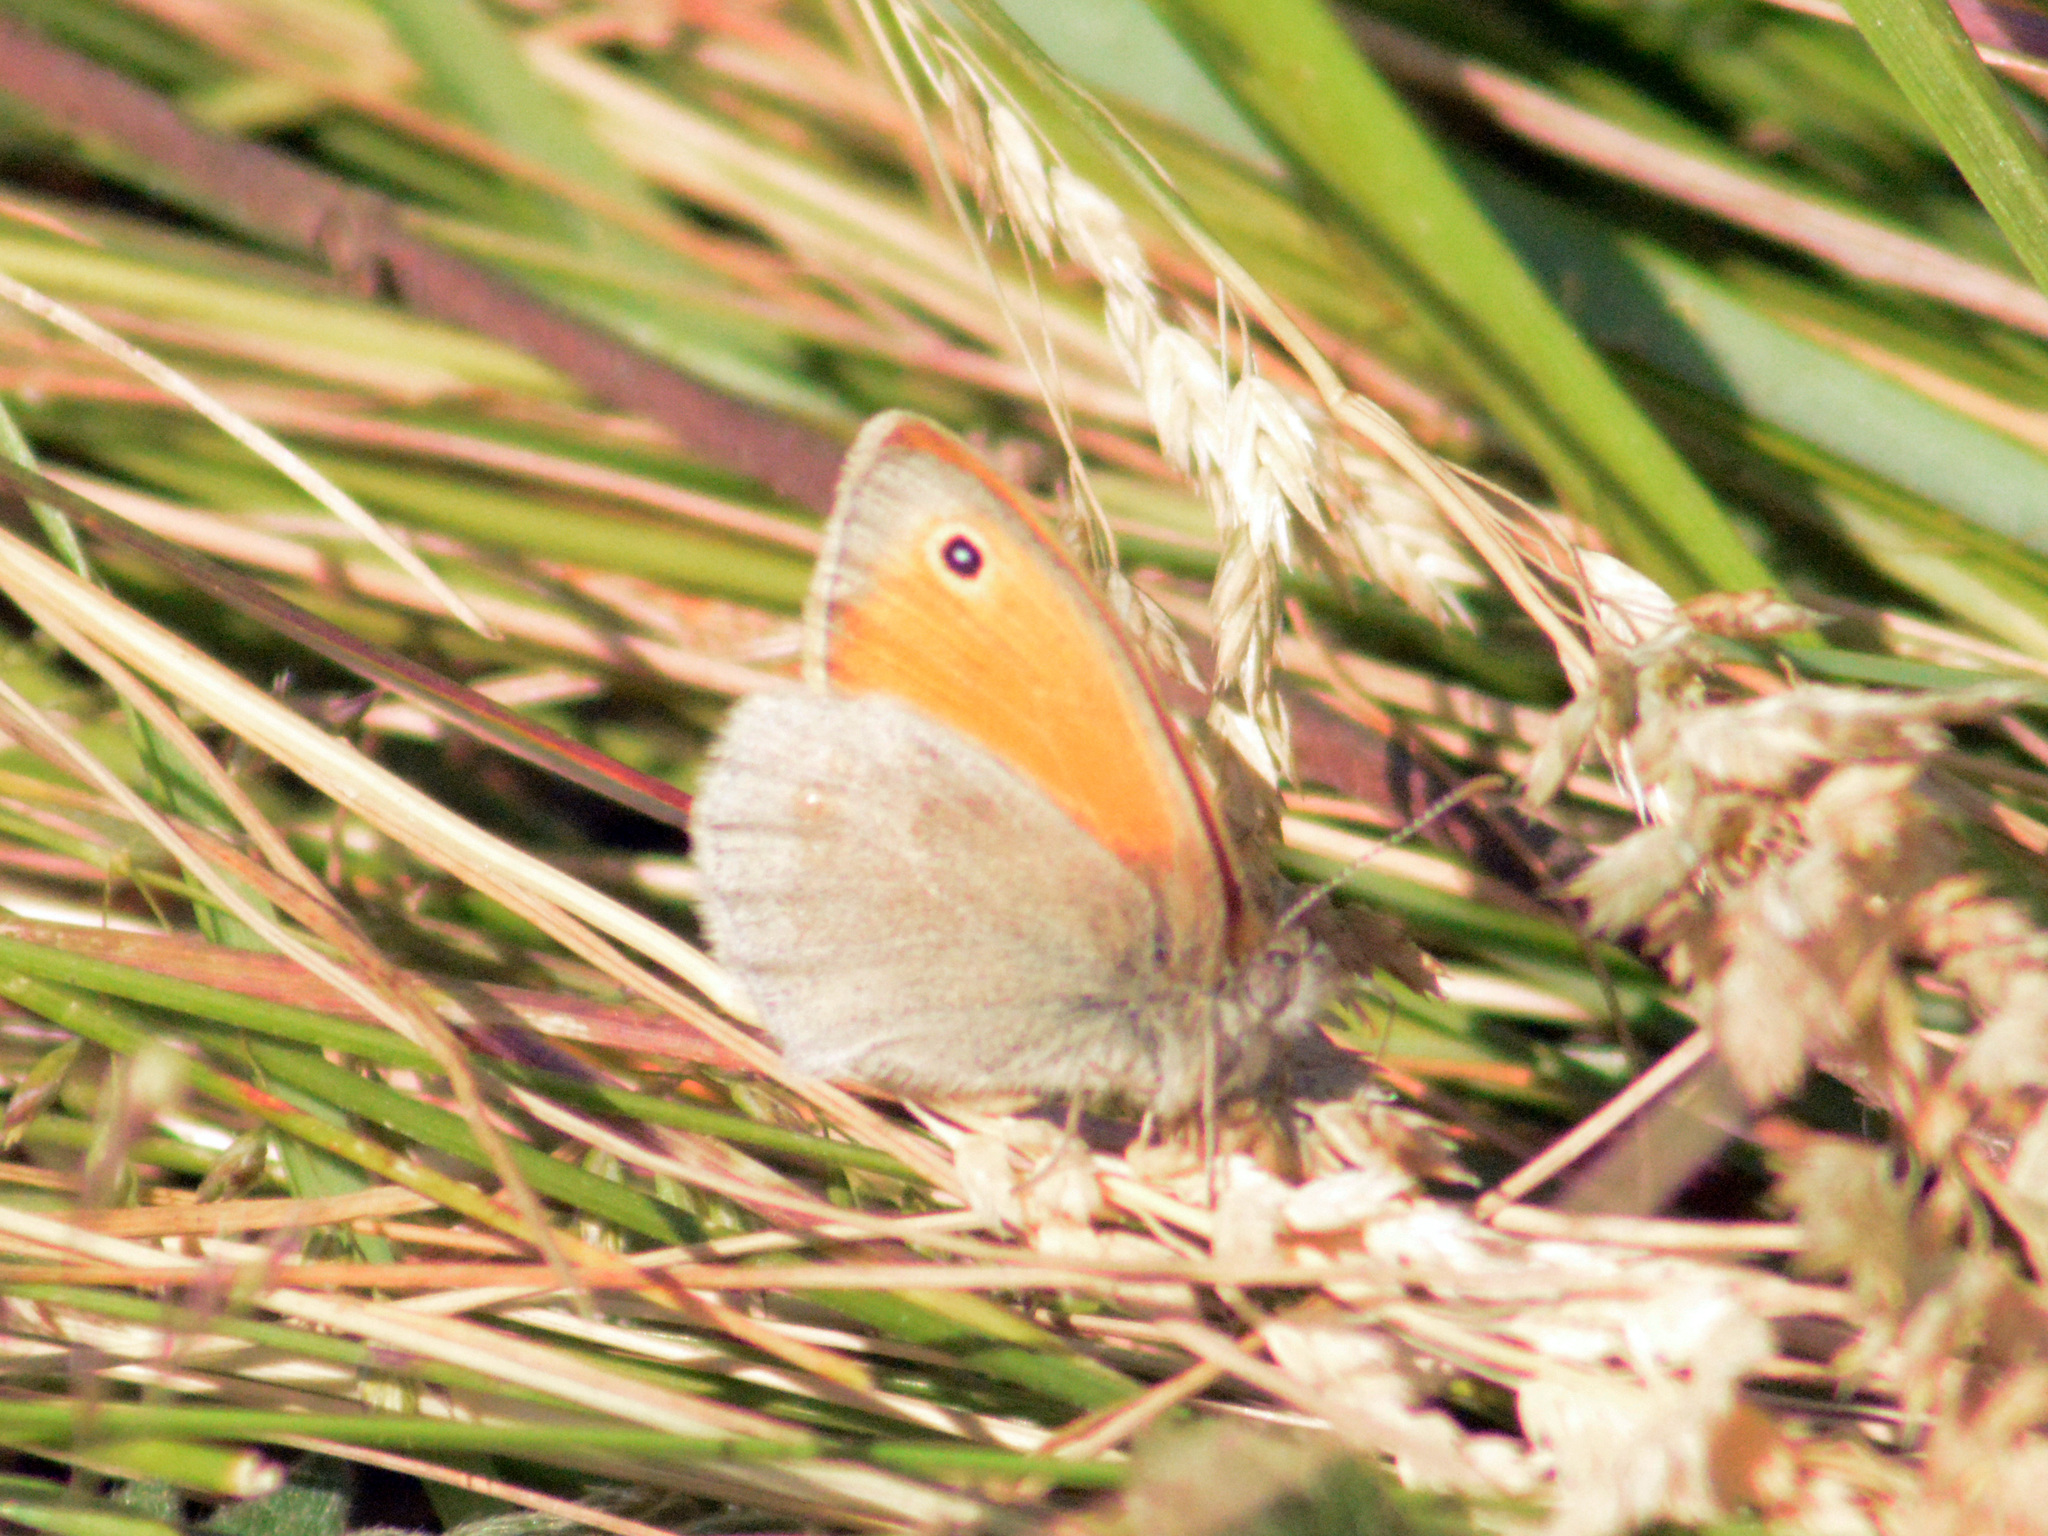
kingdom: Animalia
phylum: Arthropoda
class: Insecta
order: Lepidoptera
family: Nymphalidae
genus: Coenonympha
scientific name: Coenonympha pamphilus
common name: Small heath
